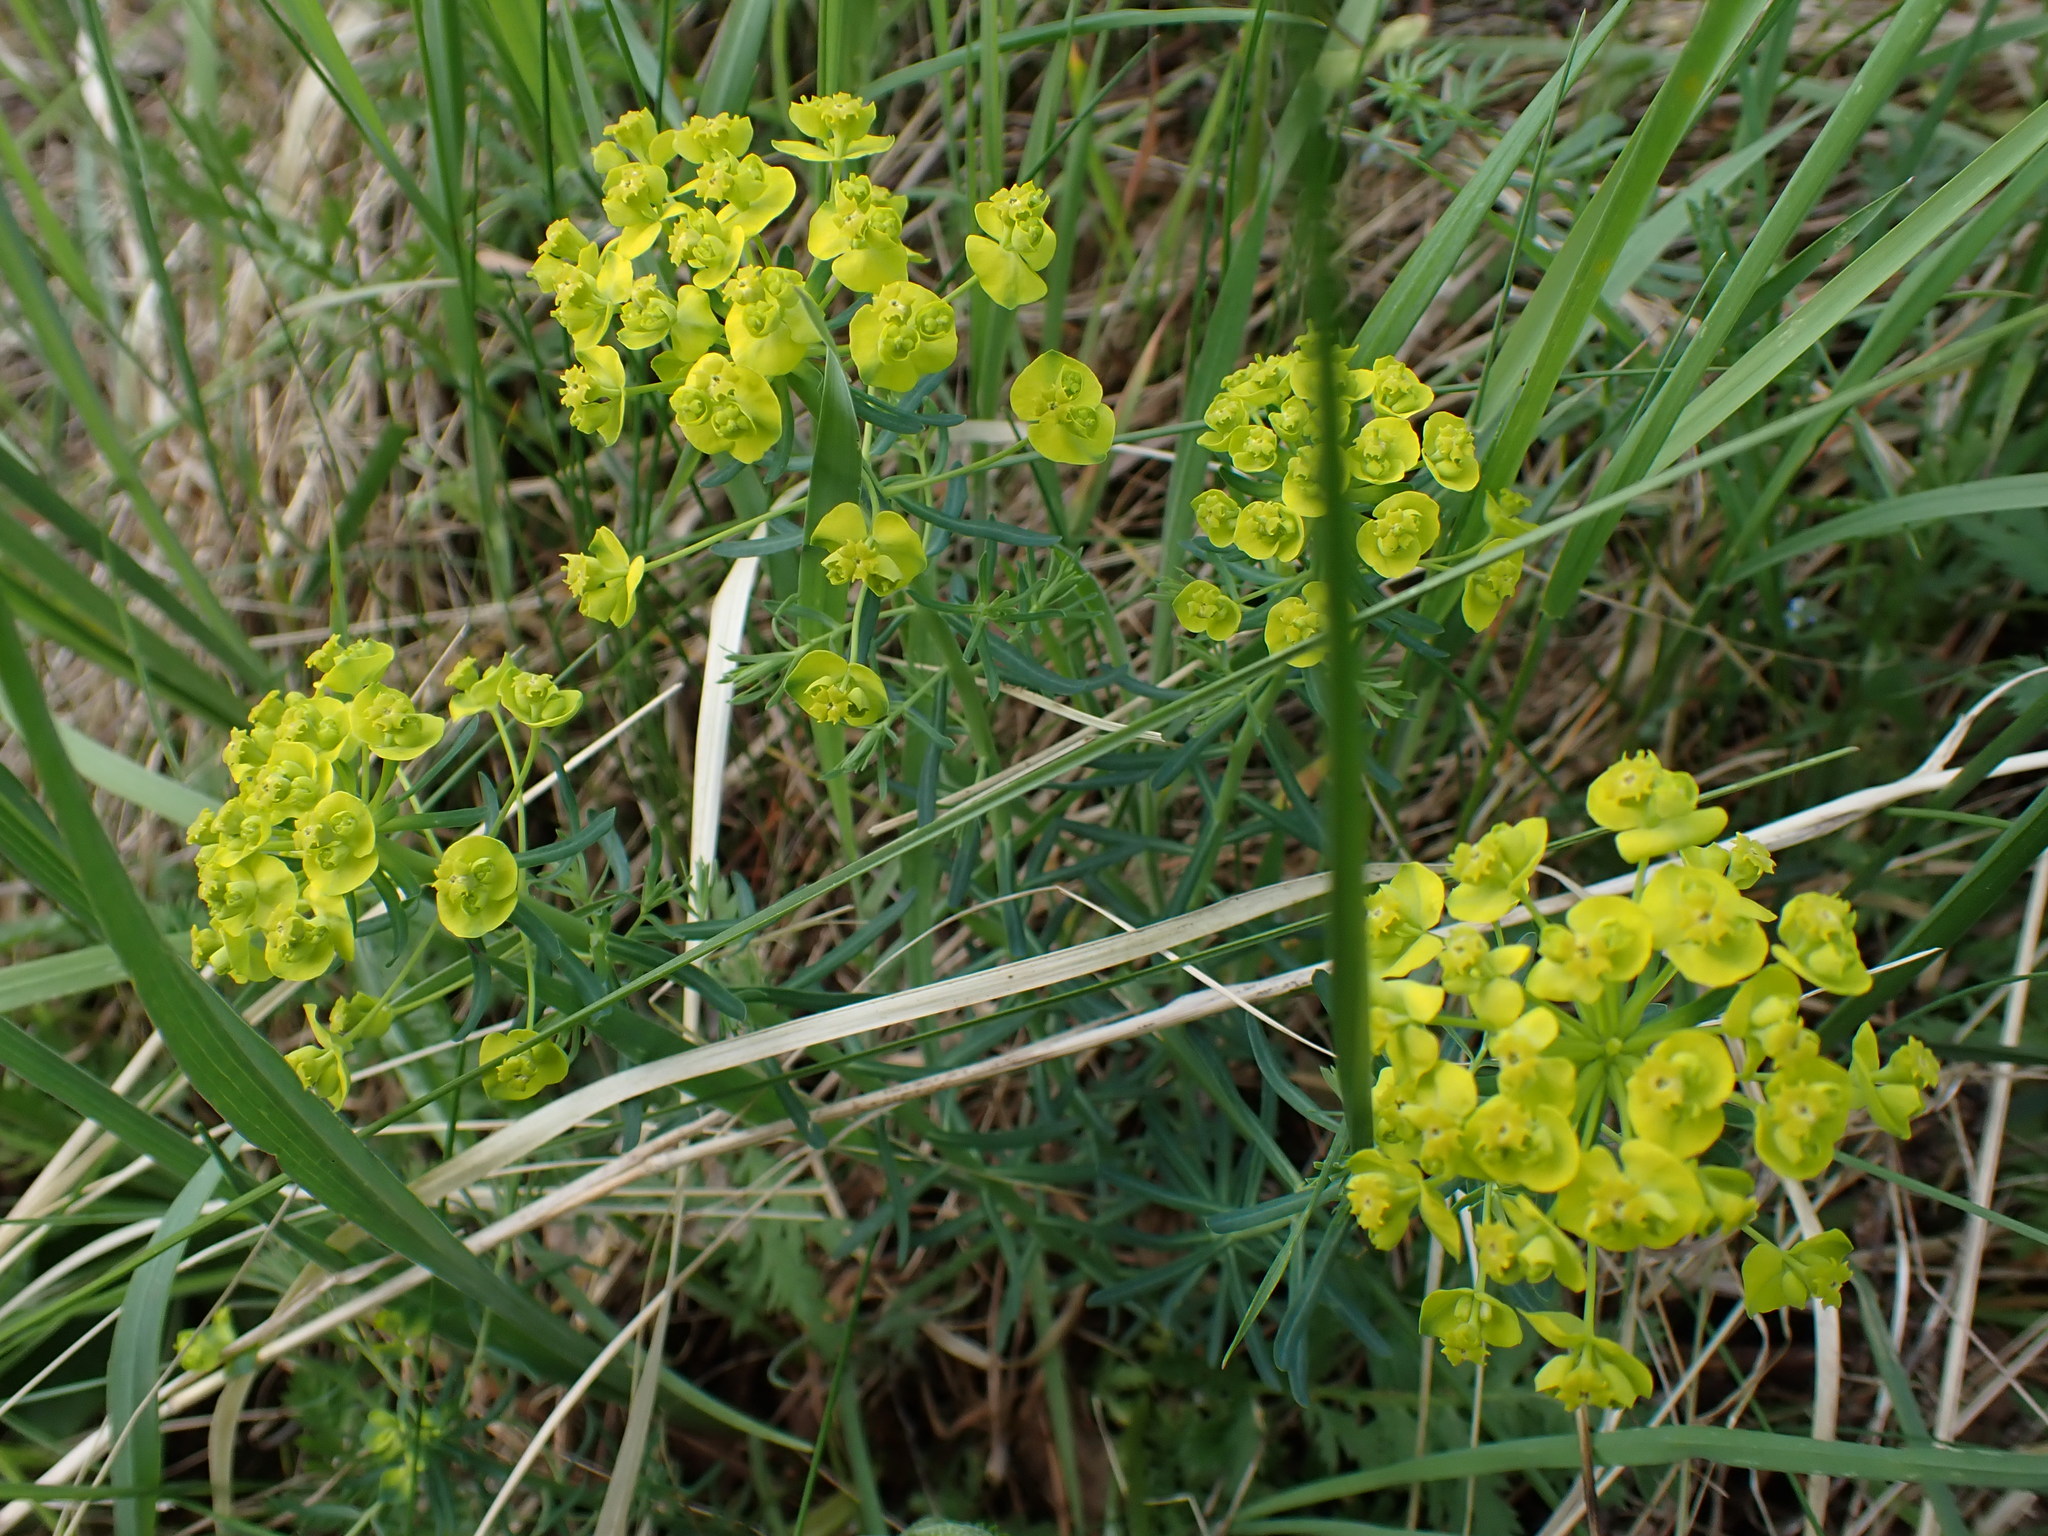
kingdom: Plantae
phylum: Tracheophyta
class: Magnoliopsida
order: Malpighiales
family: Euphorbiaceae
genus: Euphorbia
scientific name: Euphorbia cyparissias
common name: Cypress spurge
